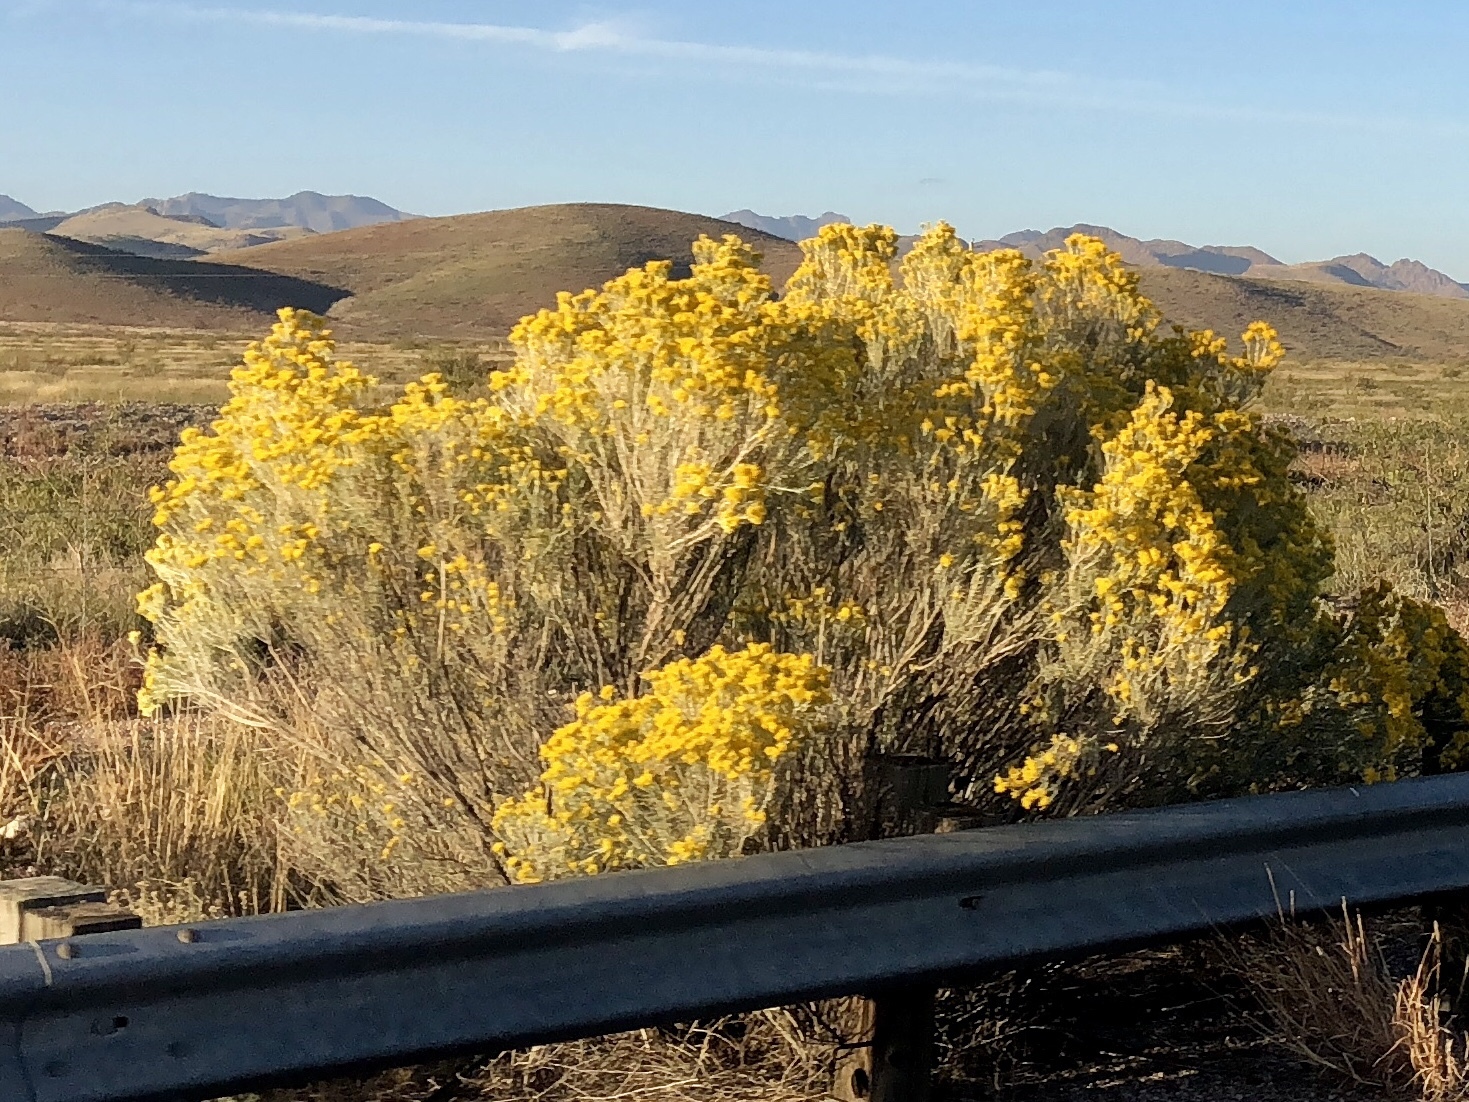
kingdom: Plantae
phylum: Tracheophyta
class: Magnoliopsida
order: Asterales
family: Asteraceae
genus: Ericameria
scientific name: Ericameria nauseosa
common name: Rubber rabbitbrush
